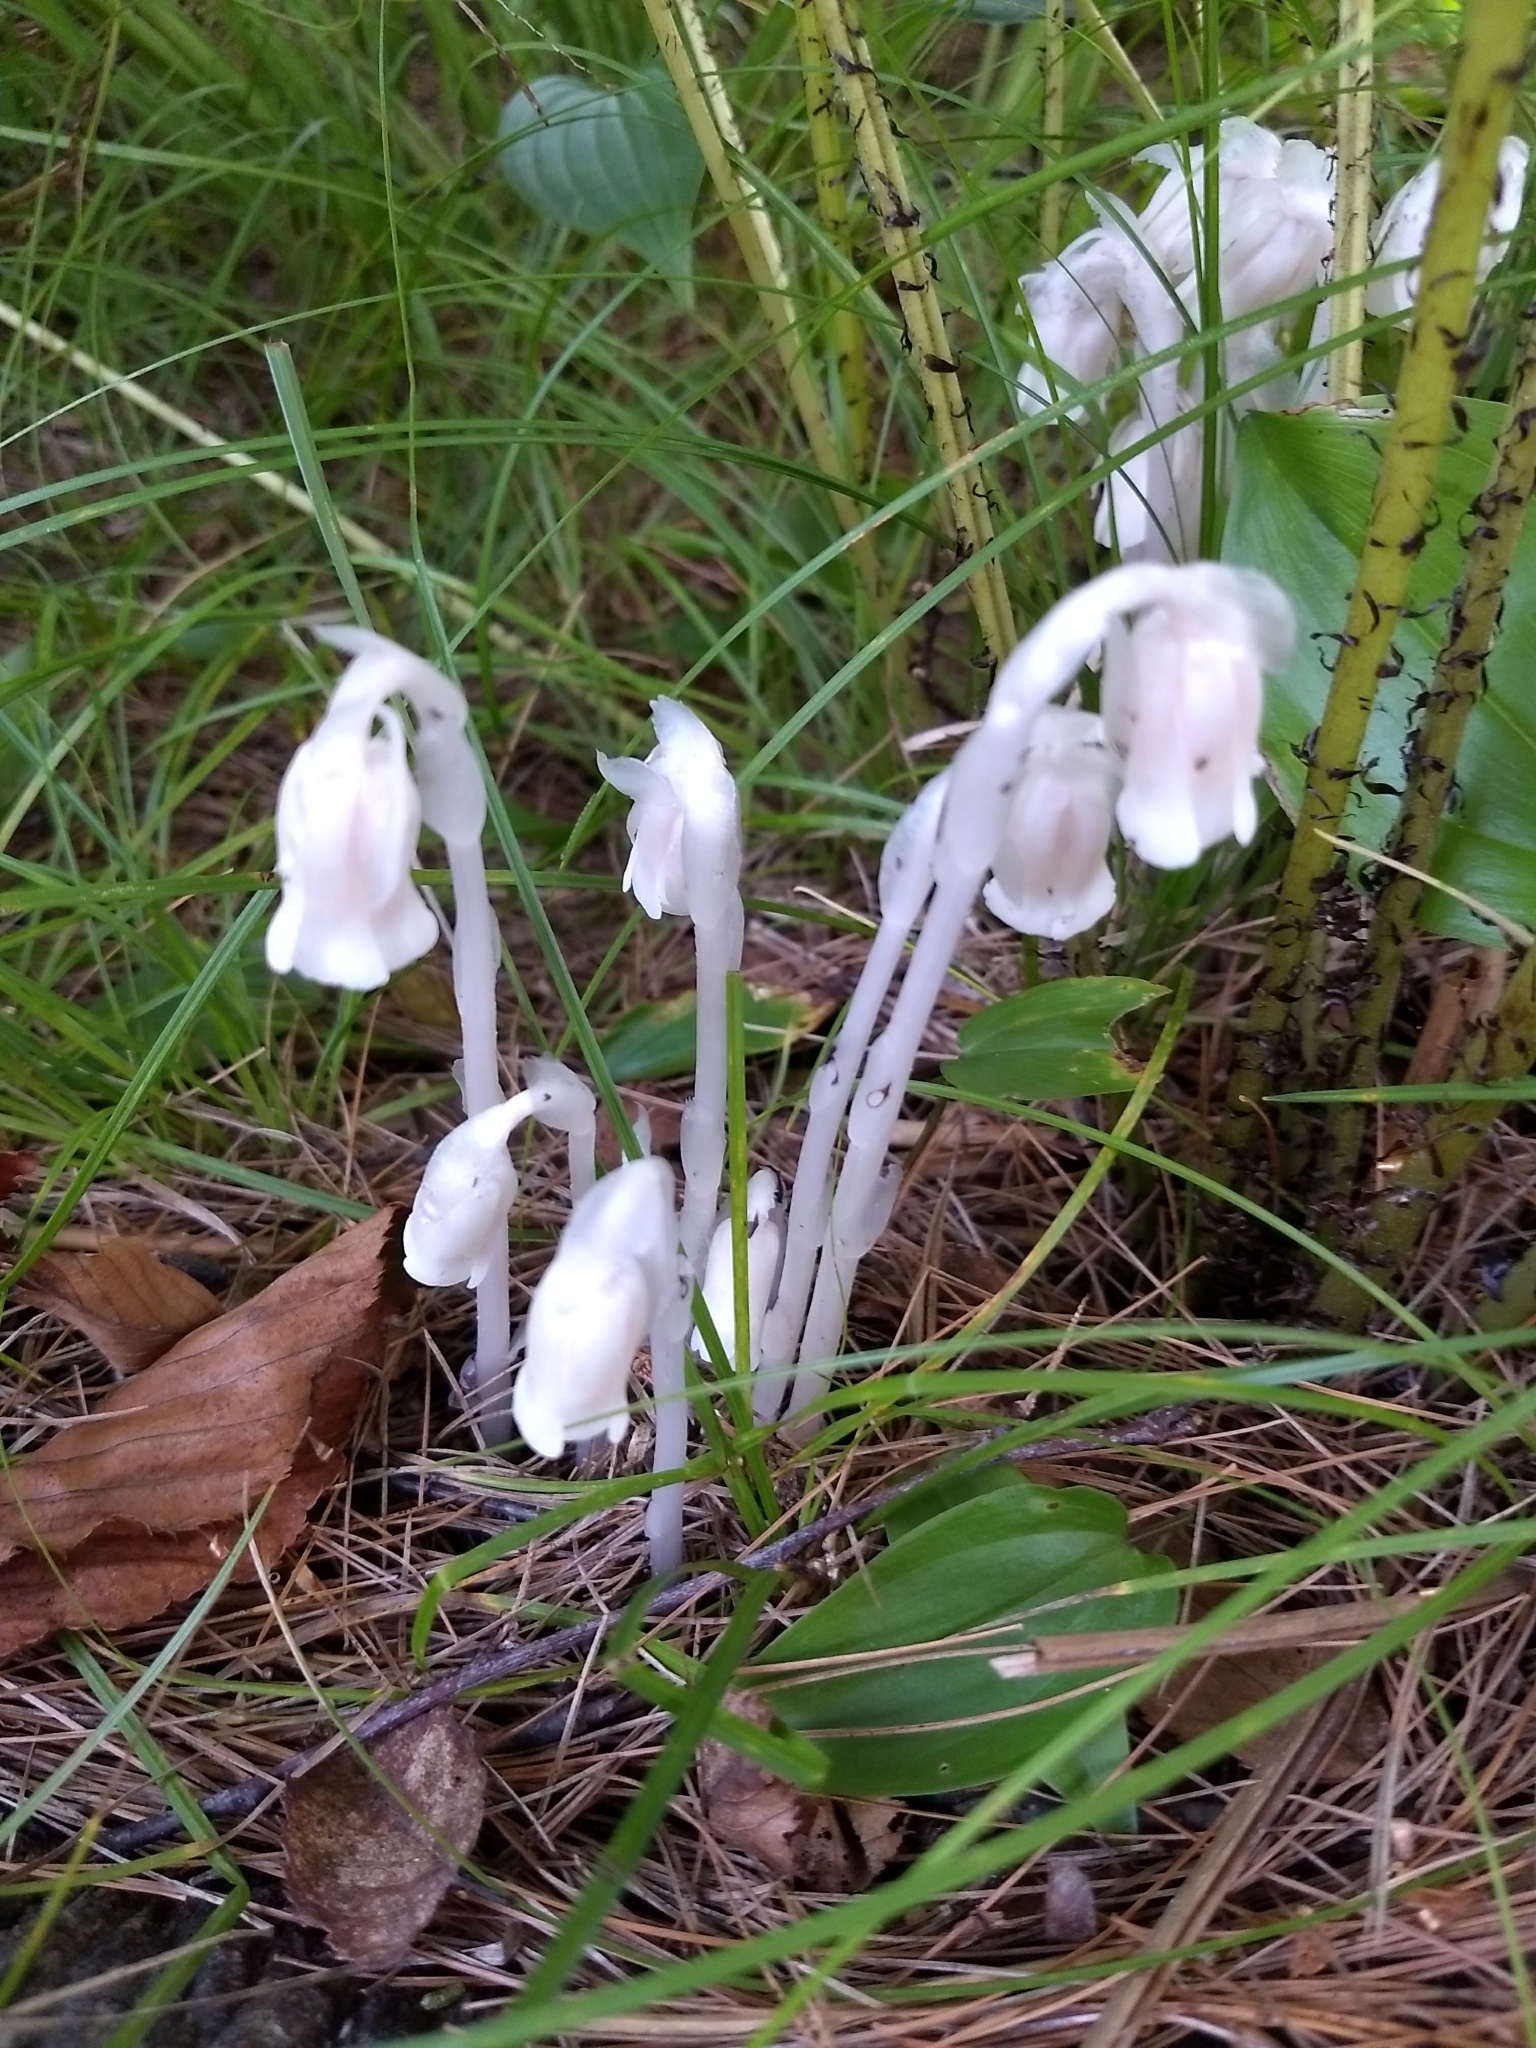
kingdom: Plantae
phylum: Tracheophyta
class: Magnoliopsida
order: Ericales
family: Ericaceae
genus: Monotropa
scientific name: Monotropa uniflora
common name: Convulsion root
